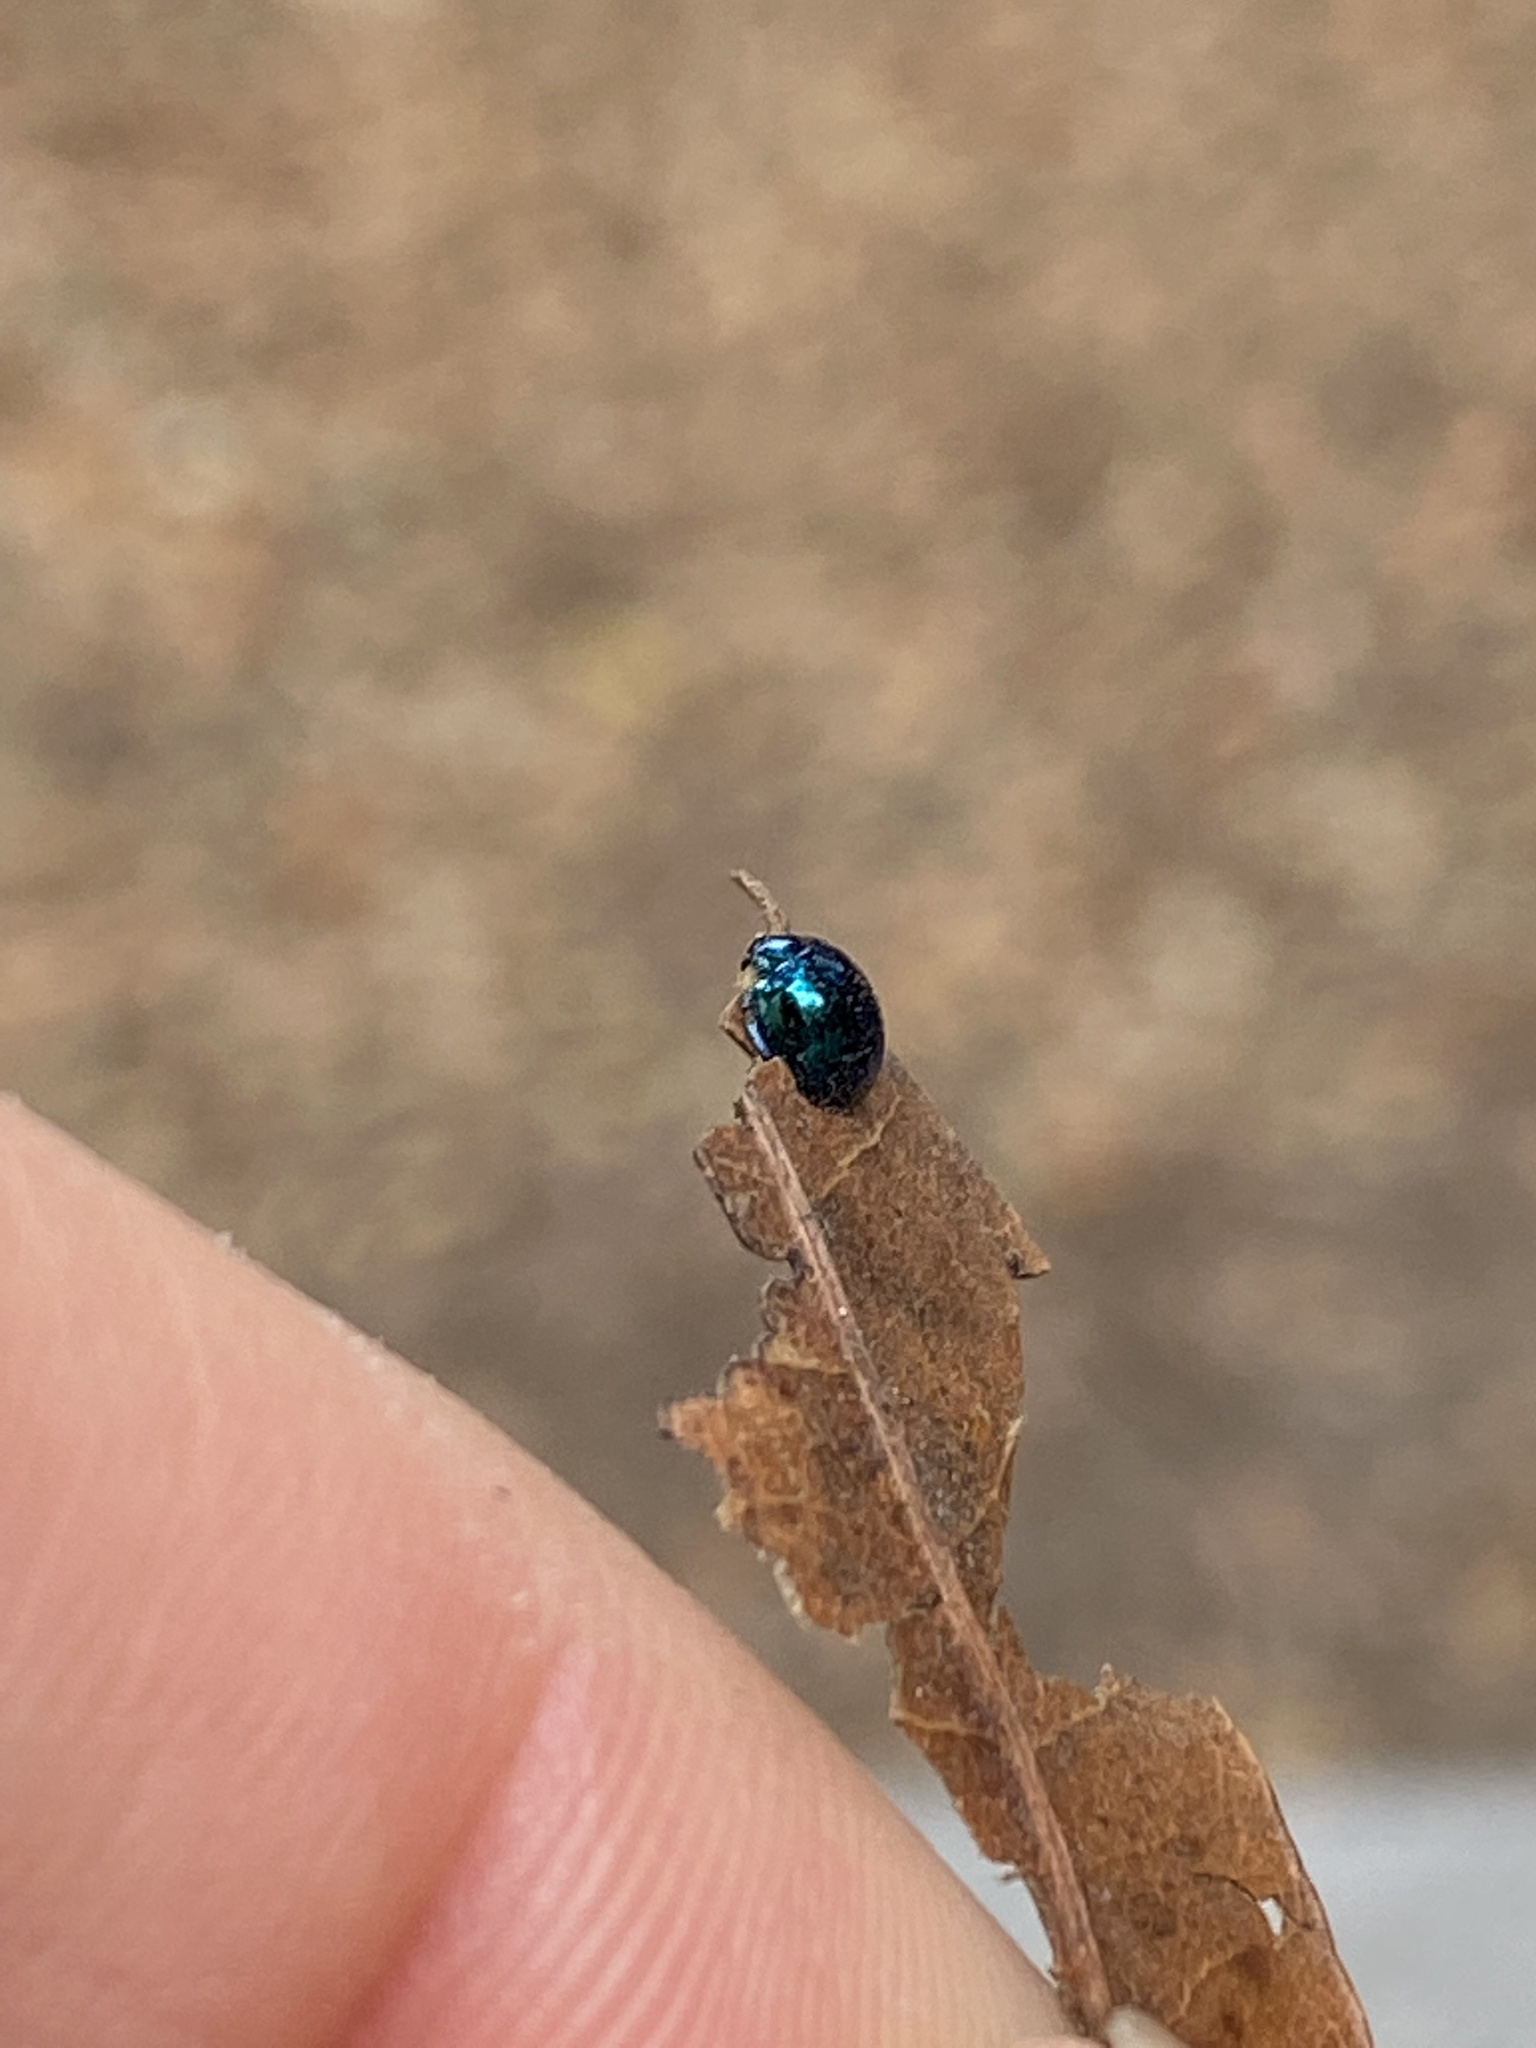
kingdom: Animalia
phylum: Arthropoda
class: Insecta
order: Coleoptera
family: Coccinellidae
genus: Halmus
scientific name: Halmus chalybeus
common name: Steel blue ladybird beetle
